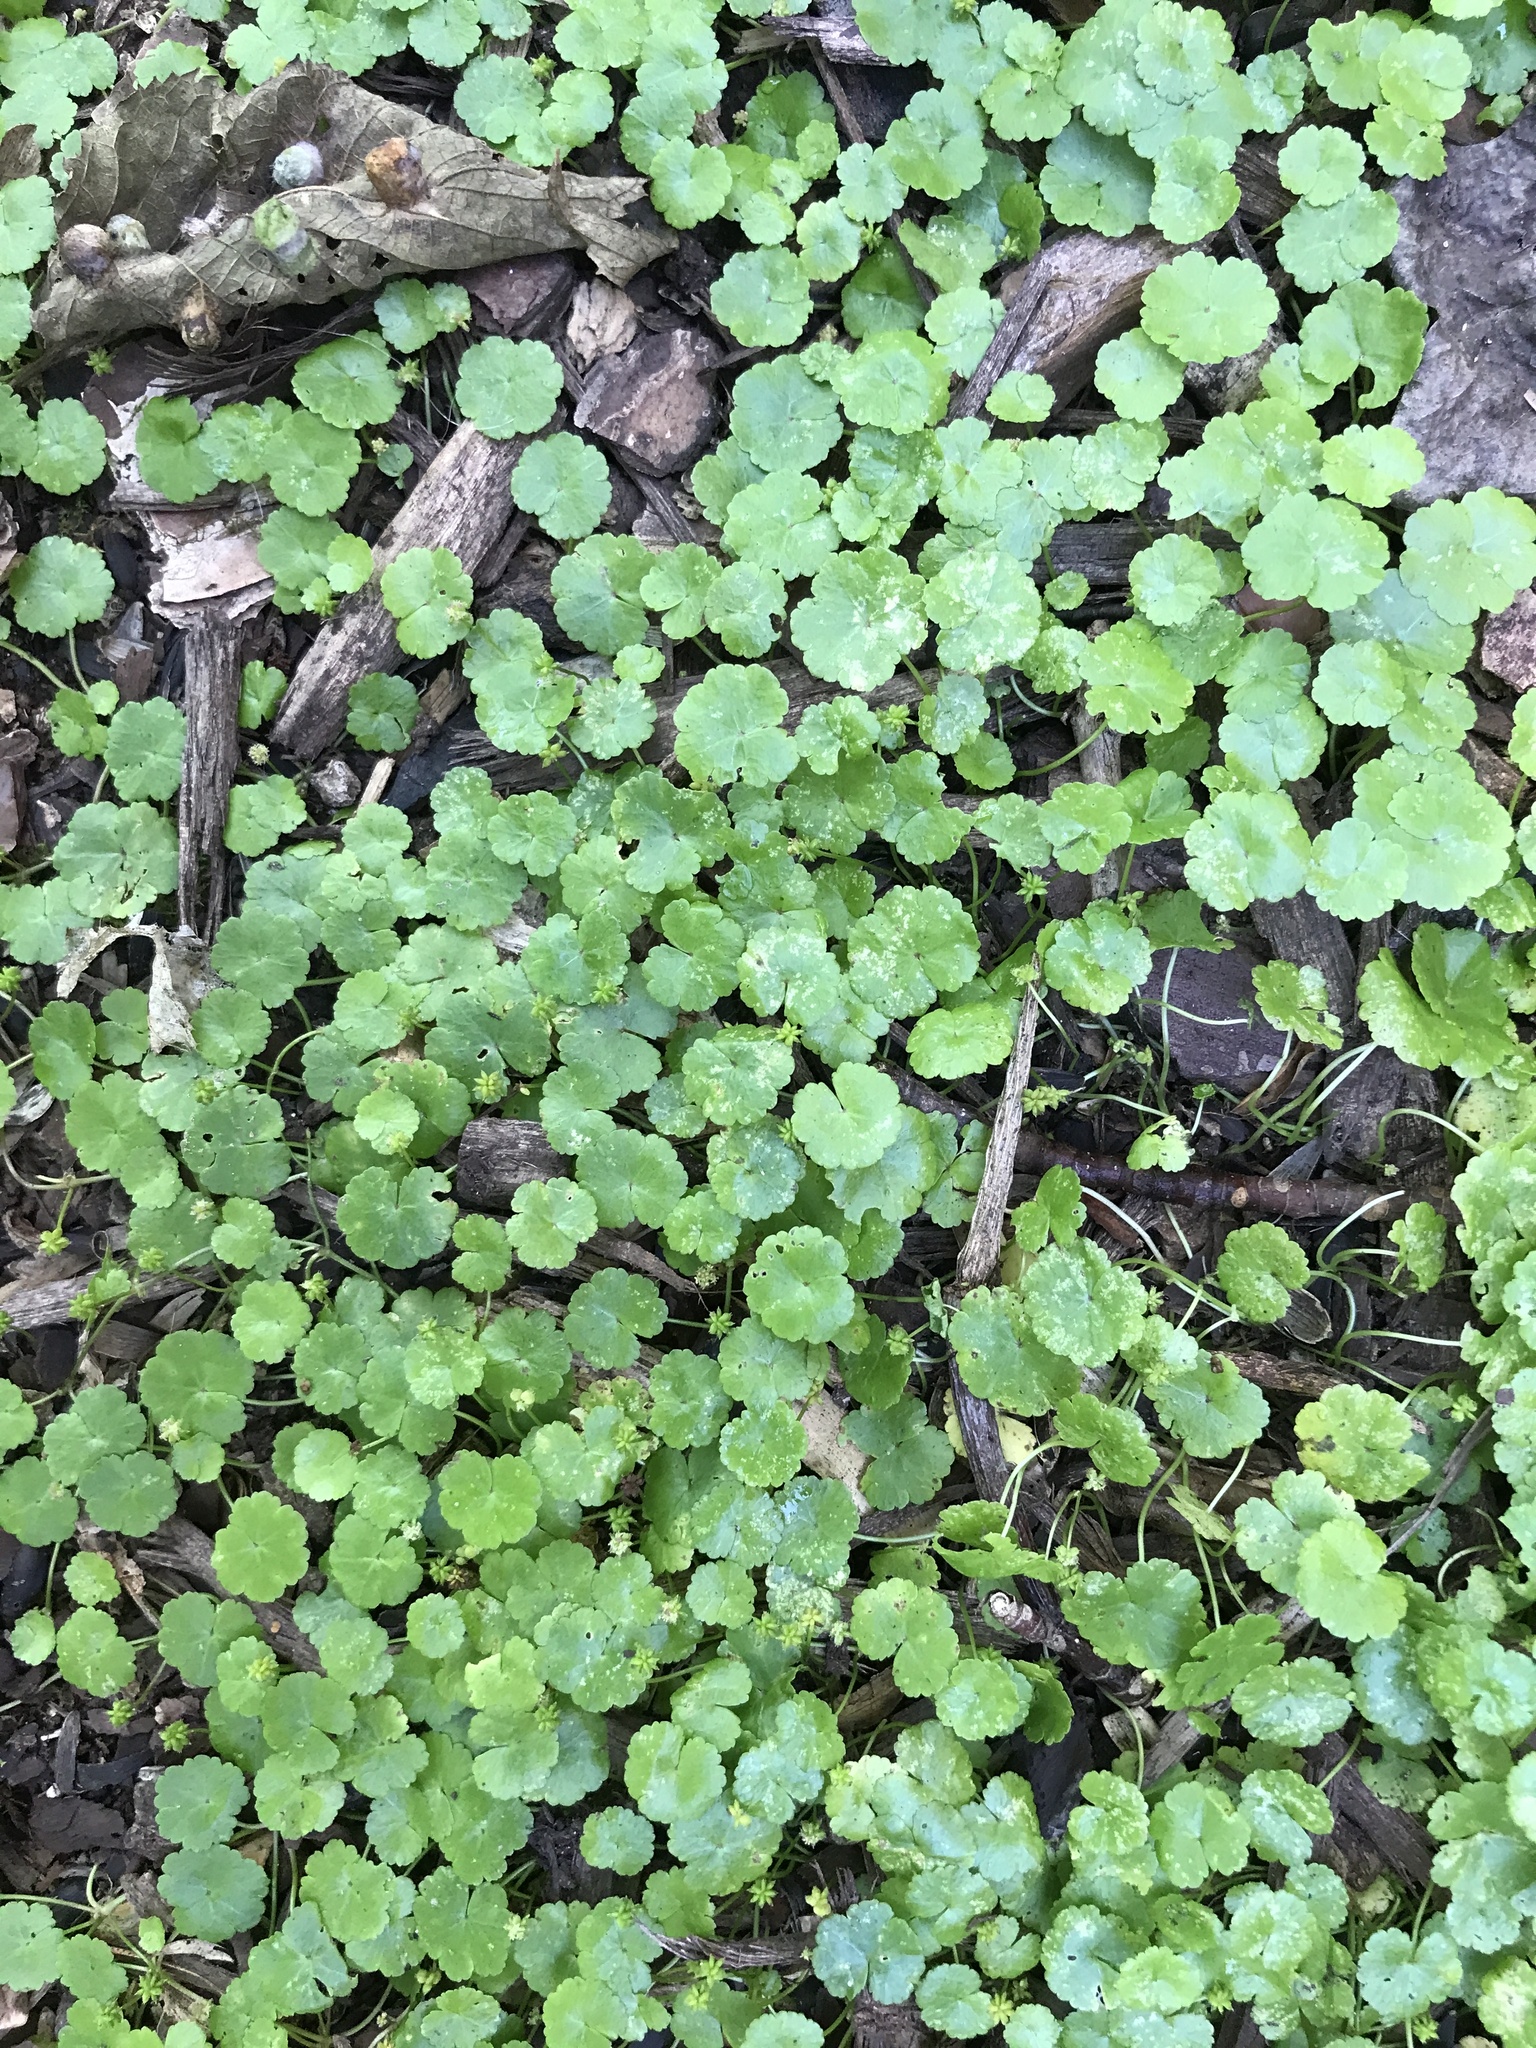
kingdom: Plantae
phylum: Tracheophyta
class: Magnoliopsida
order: Apiales
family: Araliaceae
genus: Hydrocotyle
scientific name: Hydrocotyle sibthorpioides
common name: Lawn marshpennywort
